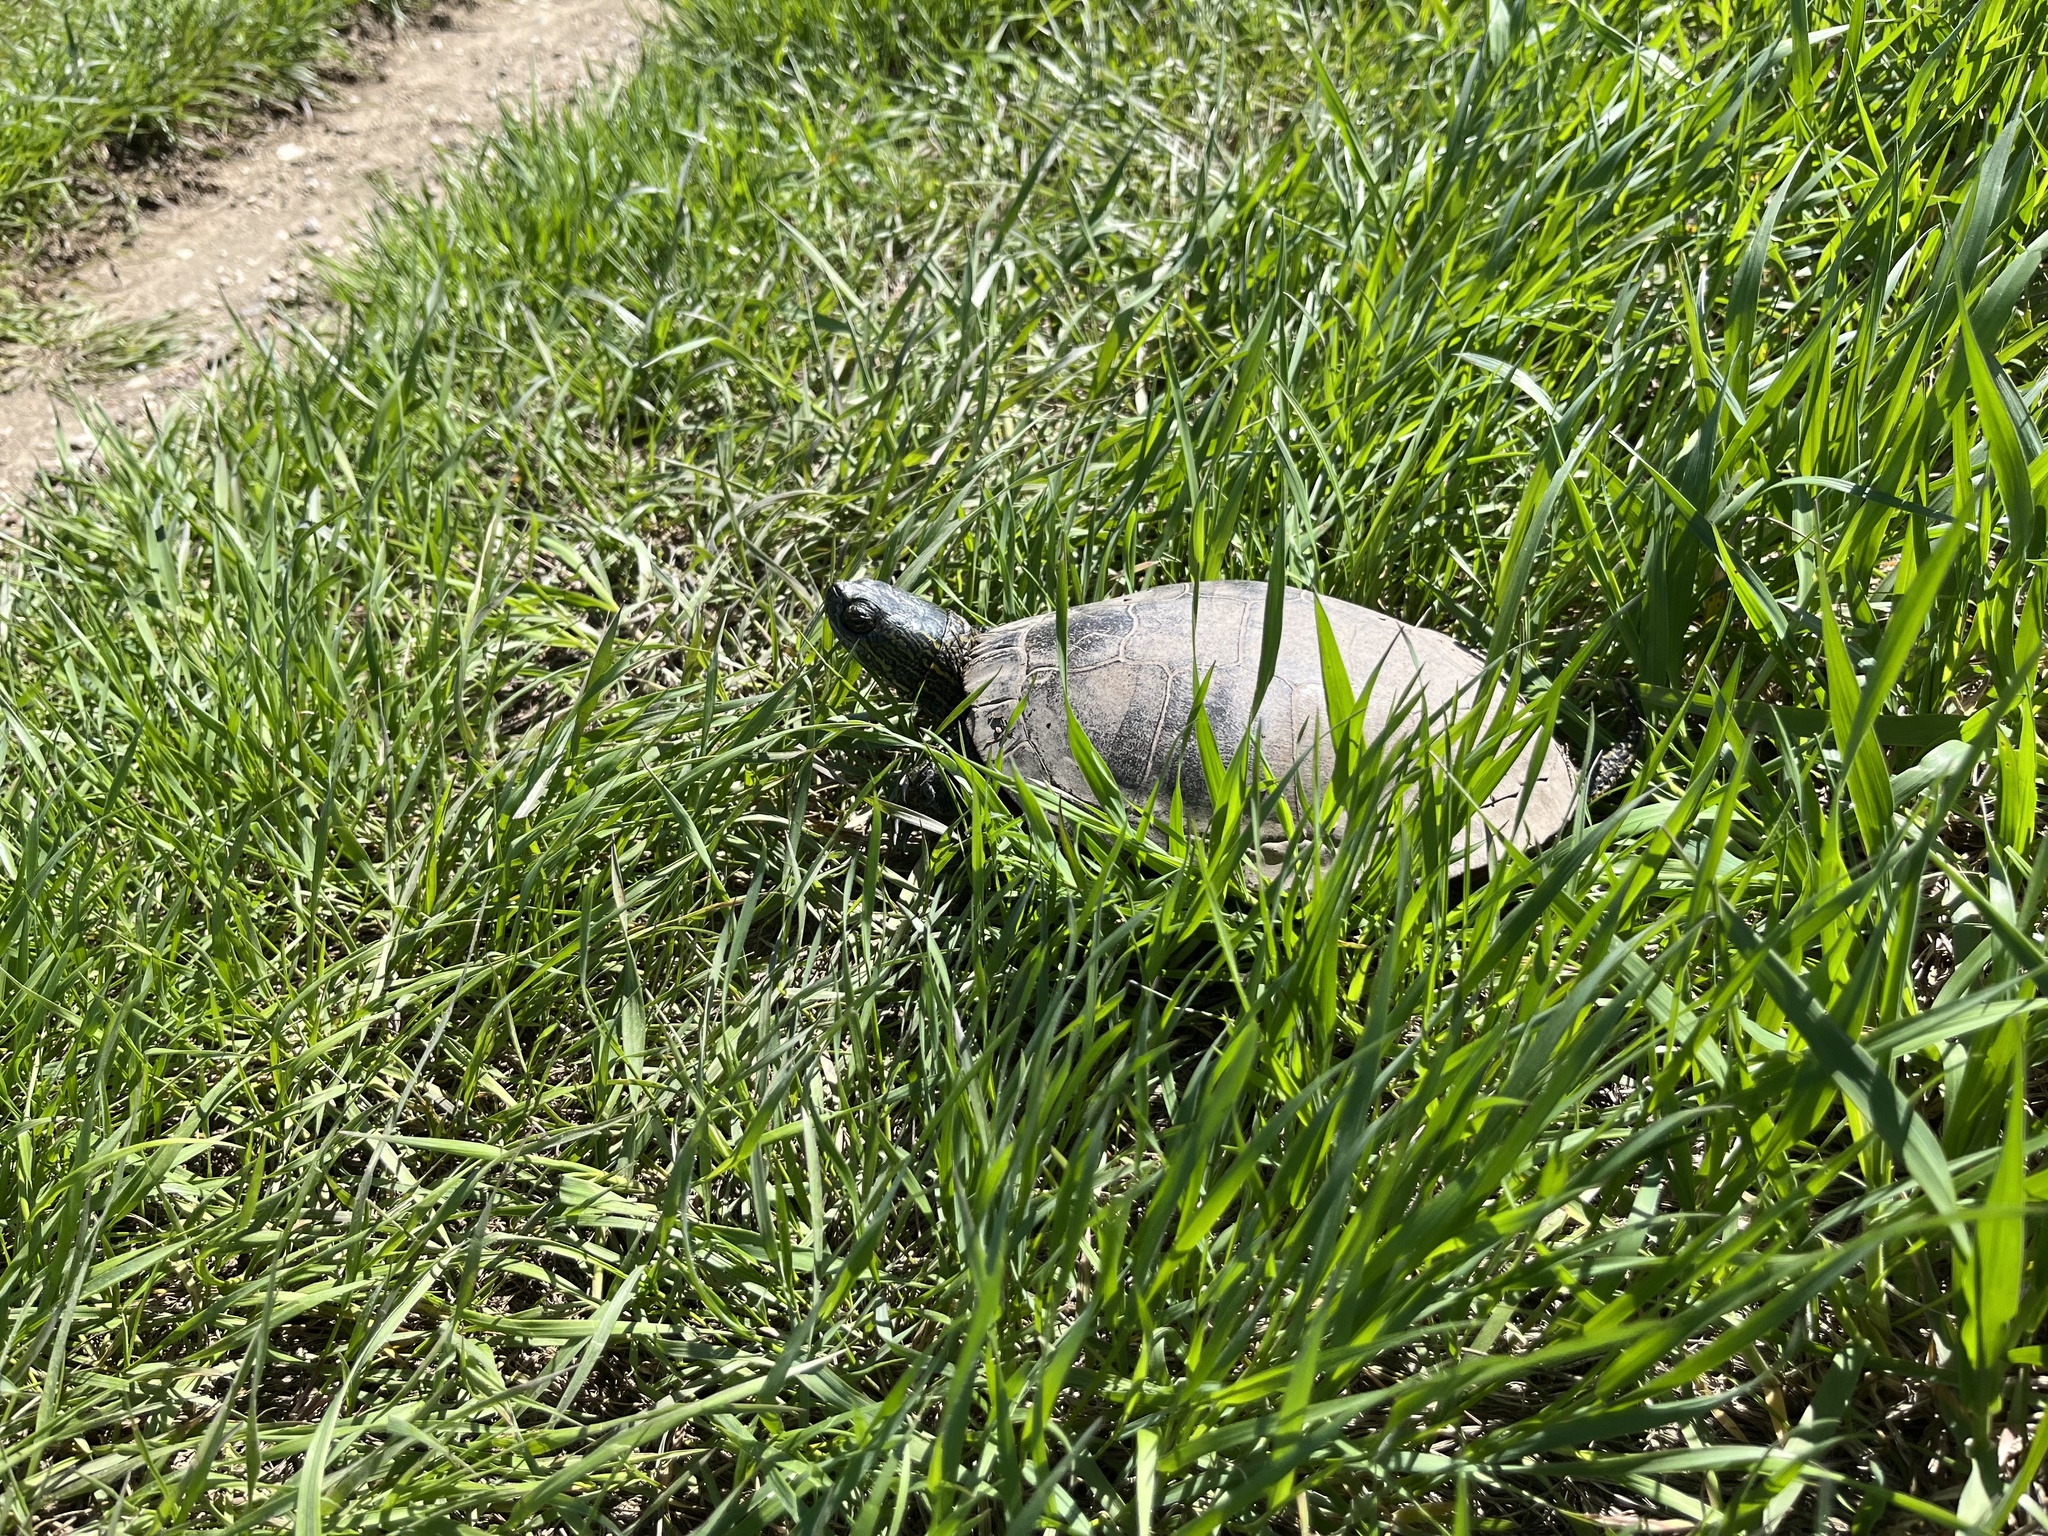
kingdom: Animalia
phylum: Chordata
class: Testudines
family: Emydidae
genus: Chrysemys
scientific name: Chrysemys picta
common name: Painted turtle
